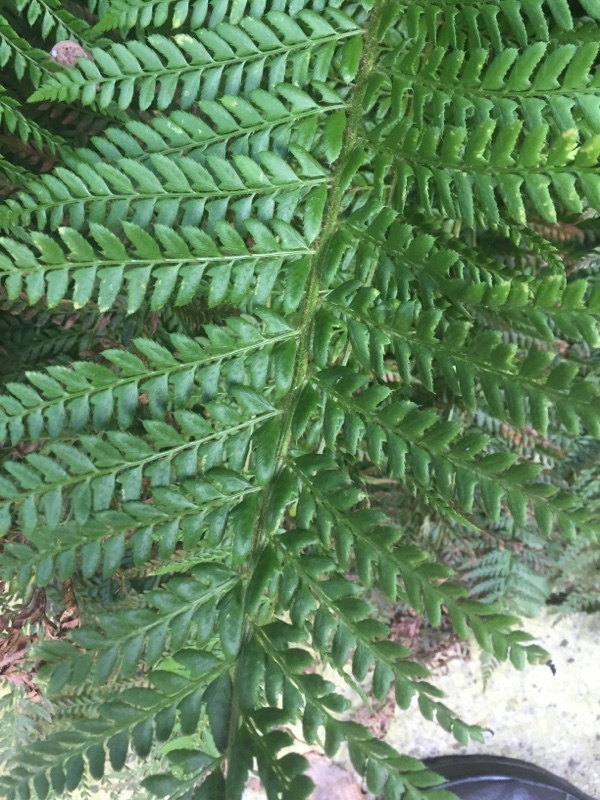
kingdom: Plantae
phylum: Tracheophyta
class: Polypodiopsida
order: Polypodiales
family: Dryopteridaceae
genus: Polystichum
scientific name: Polystichum aculeatum
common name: Hard shield-fern
